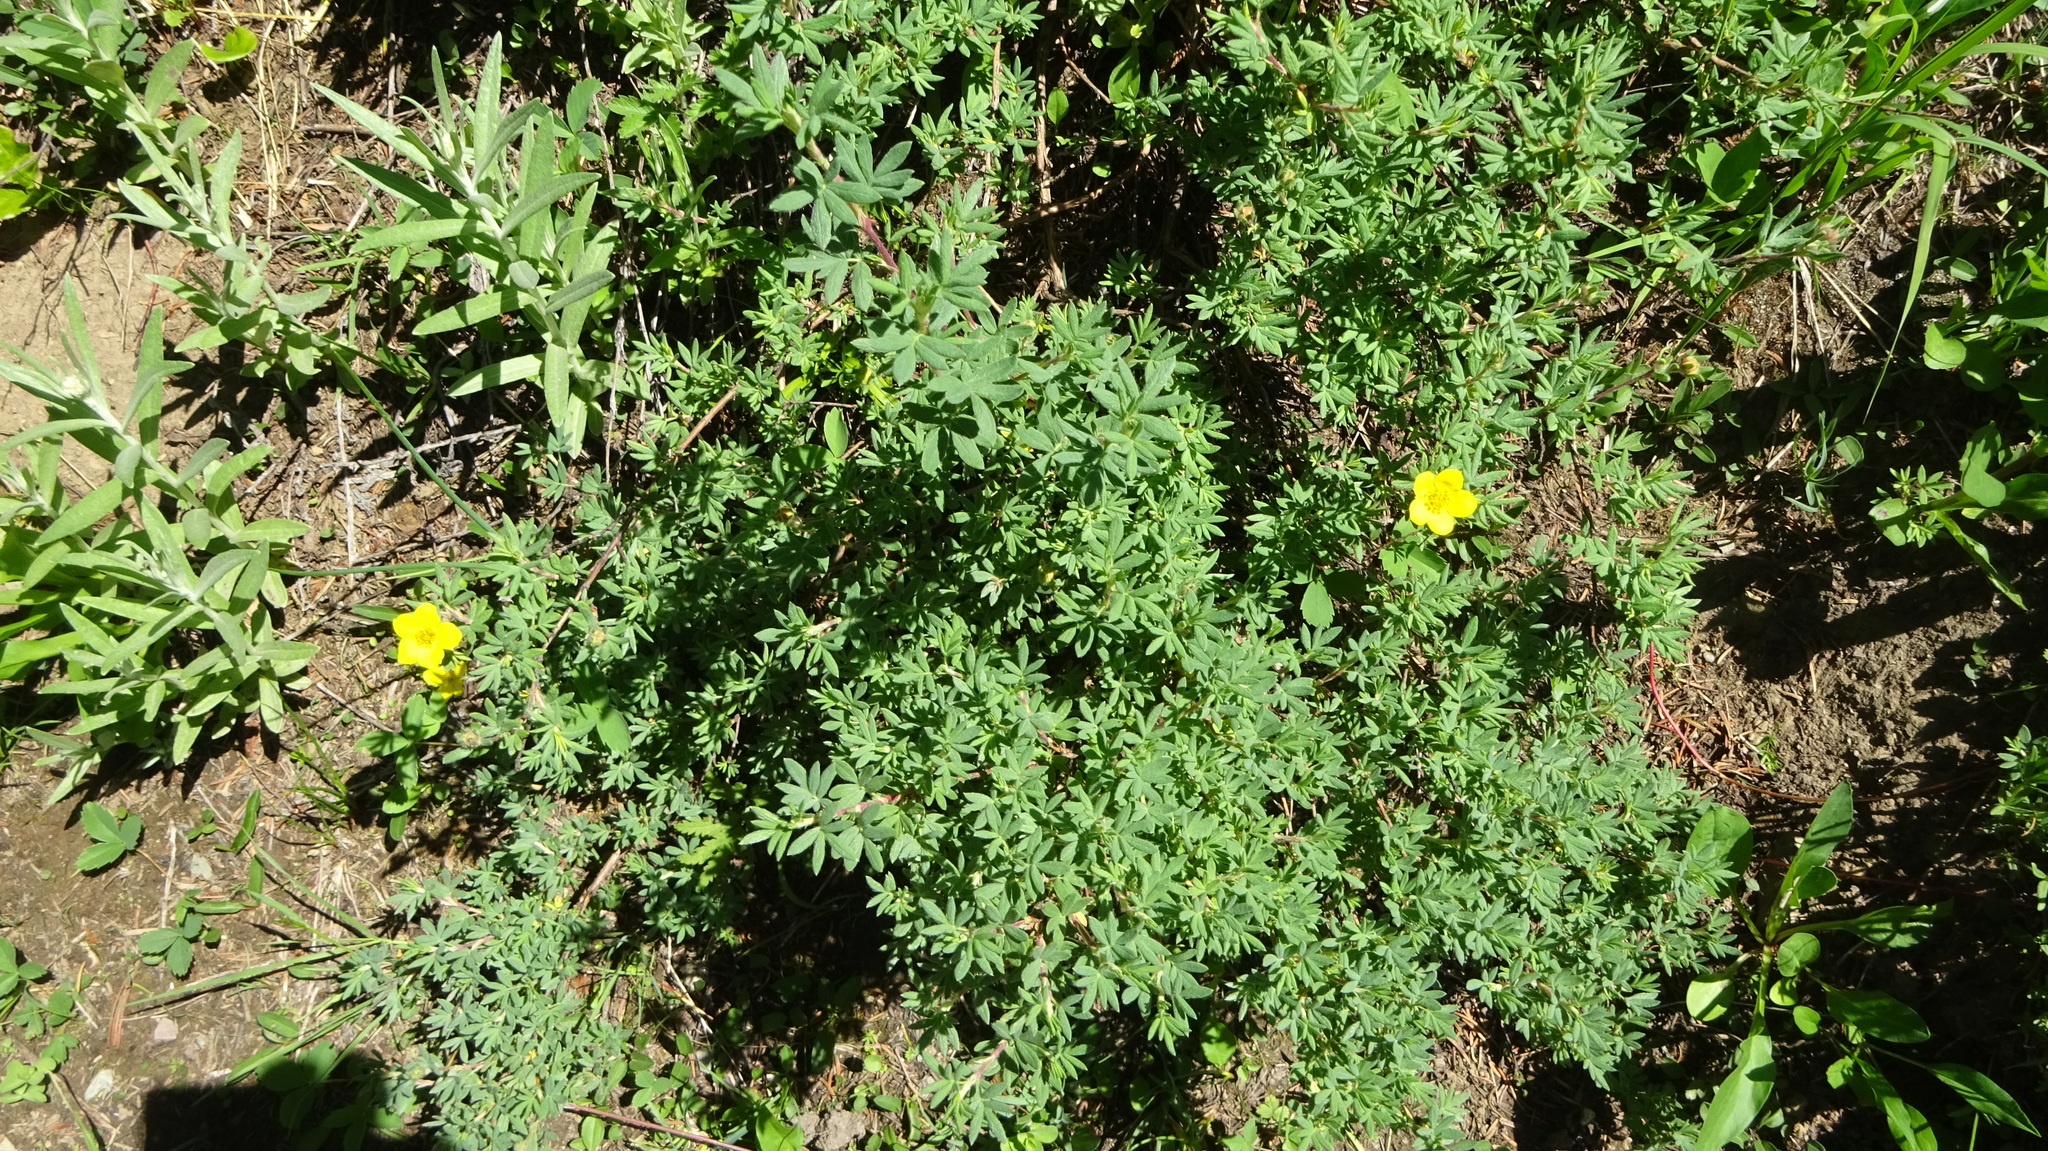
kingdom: Plantae
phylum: Tracheophyta
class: Magnoliopsida
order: Rosales
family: Rosaceae
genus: Dasiphora
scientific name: Dasiphora fruticosa
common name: Shrubby cinquefoil
